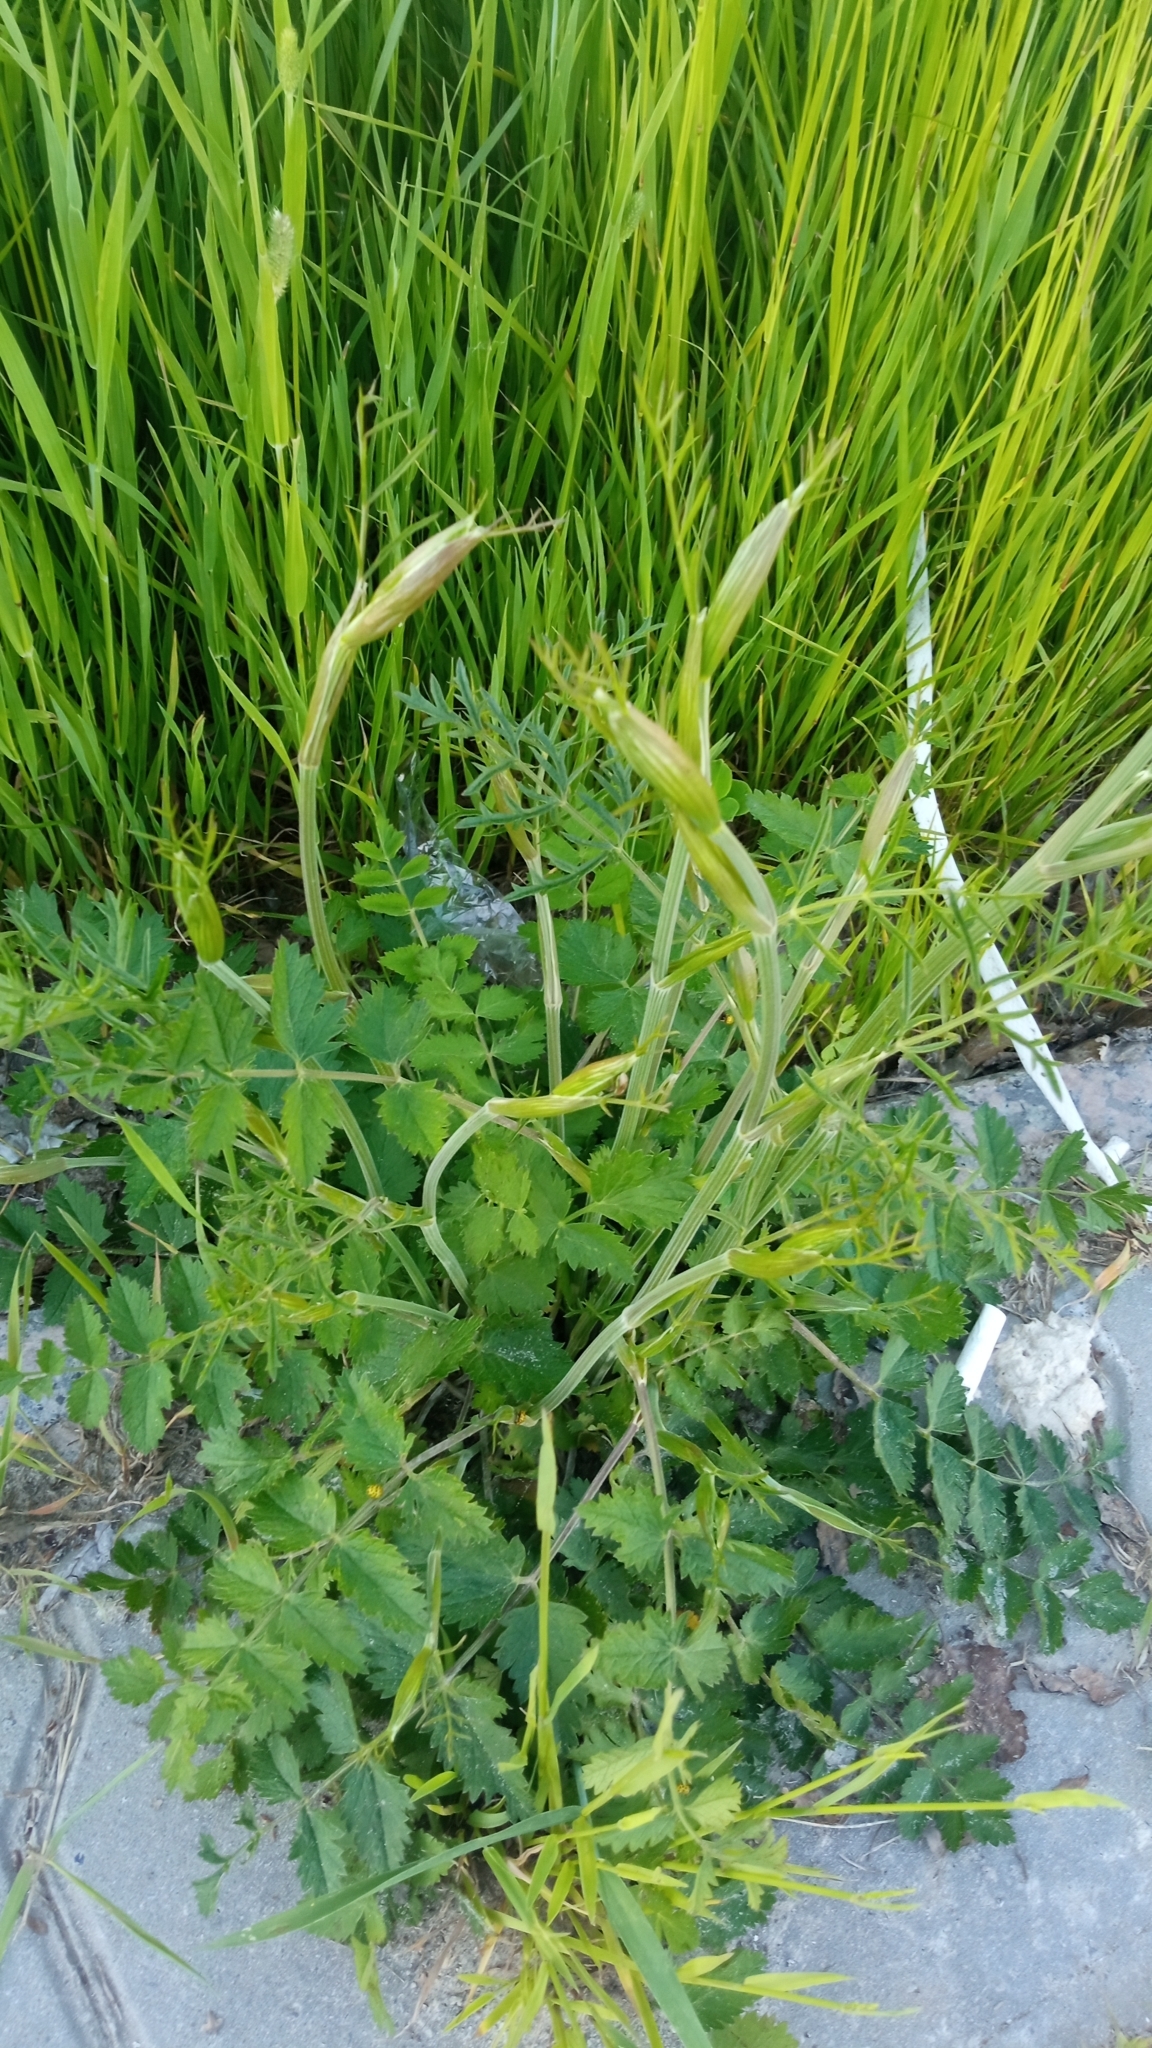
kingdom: Plantae
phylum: Tracheophyta
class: Magnoliopsida
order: Apiales
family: Apiaceae
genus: Pimpinella
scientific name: Pimpinella saxifraga
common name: Burnet-saxifrage
